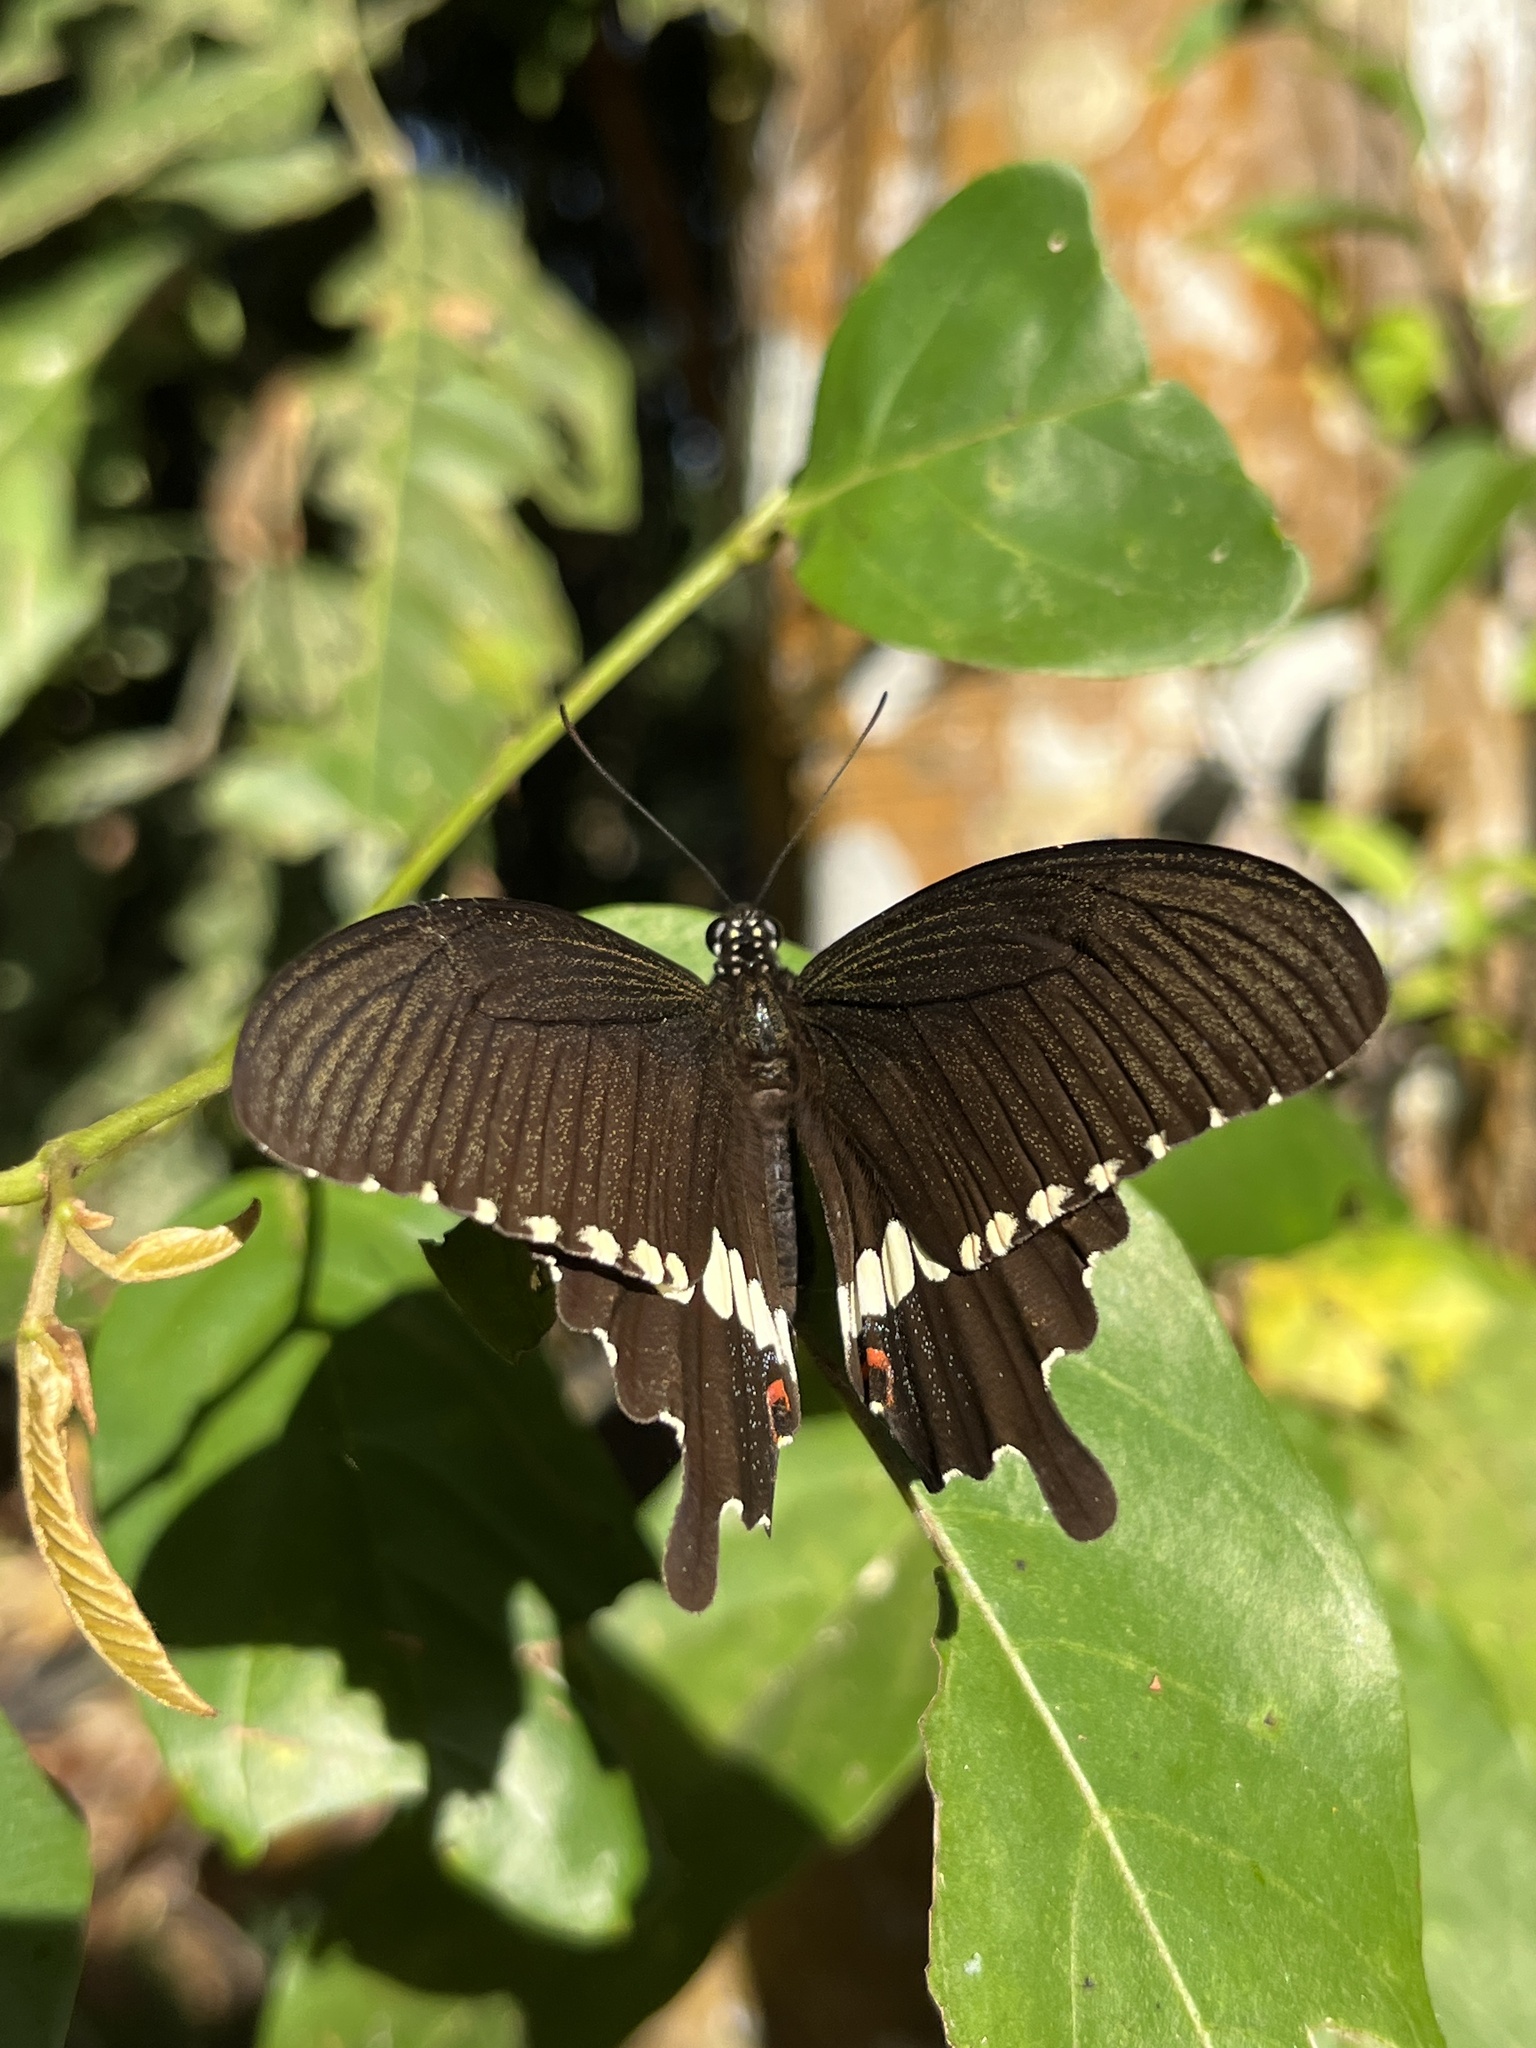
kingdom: Animalia
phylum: Arthropoda
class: Insecta
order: Lepidoptera
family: Papilionidae
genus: Papilio
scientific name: Papilio polytes
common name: Common mormon
